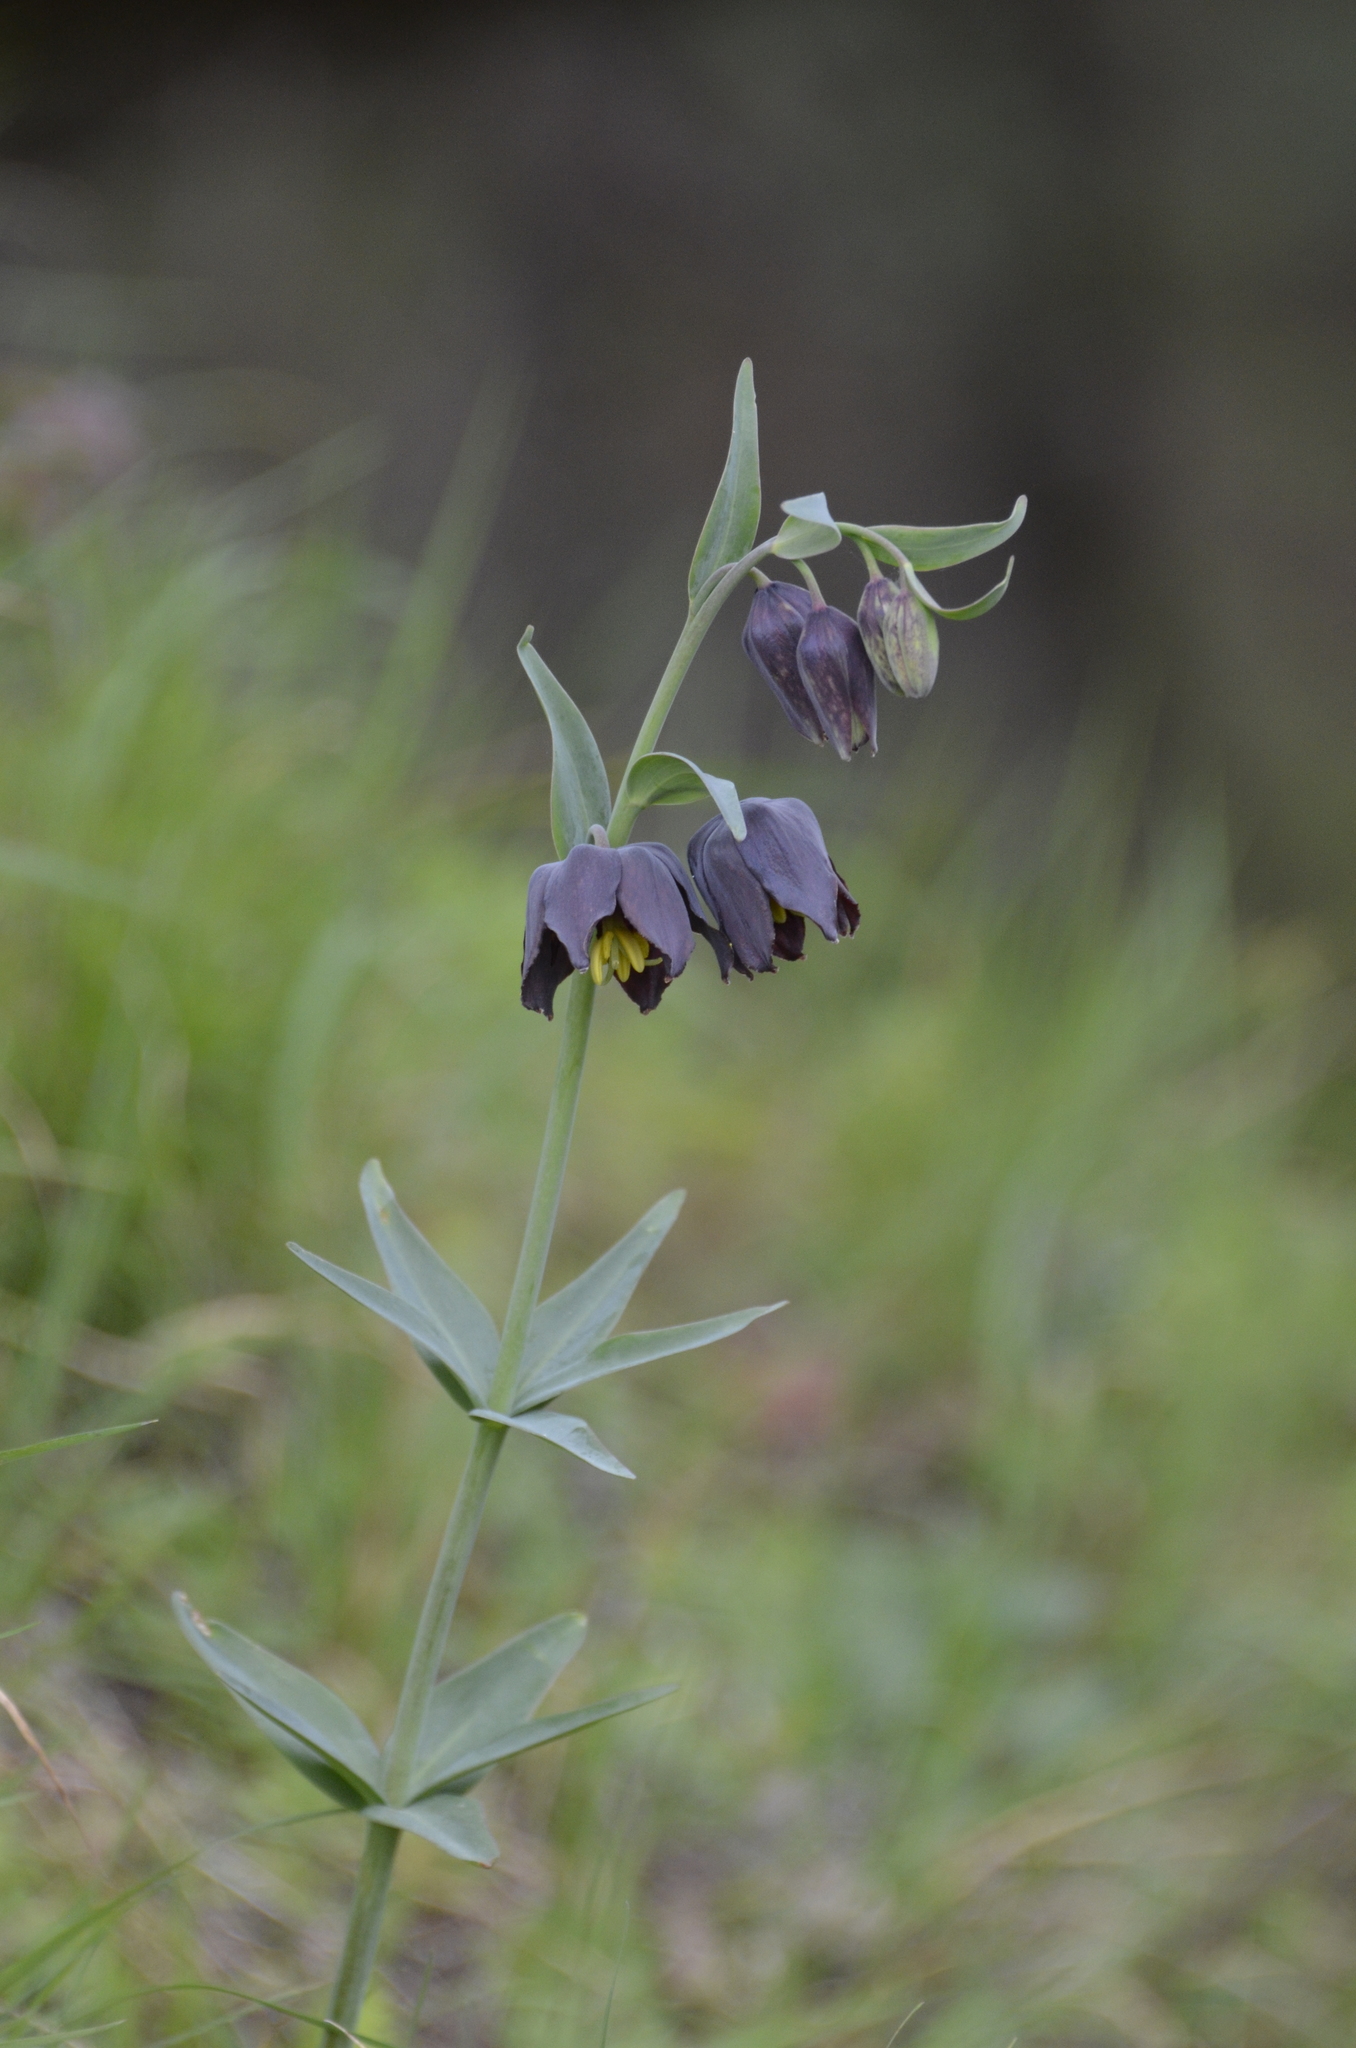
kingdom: Plantae
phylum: Tracheophyta
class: Liliopsida
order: Liliales
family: Liliaceae
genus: Fritillaria
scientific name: Fritillaria affinis
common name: Ojai fritillary
